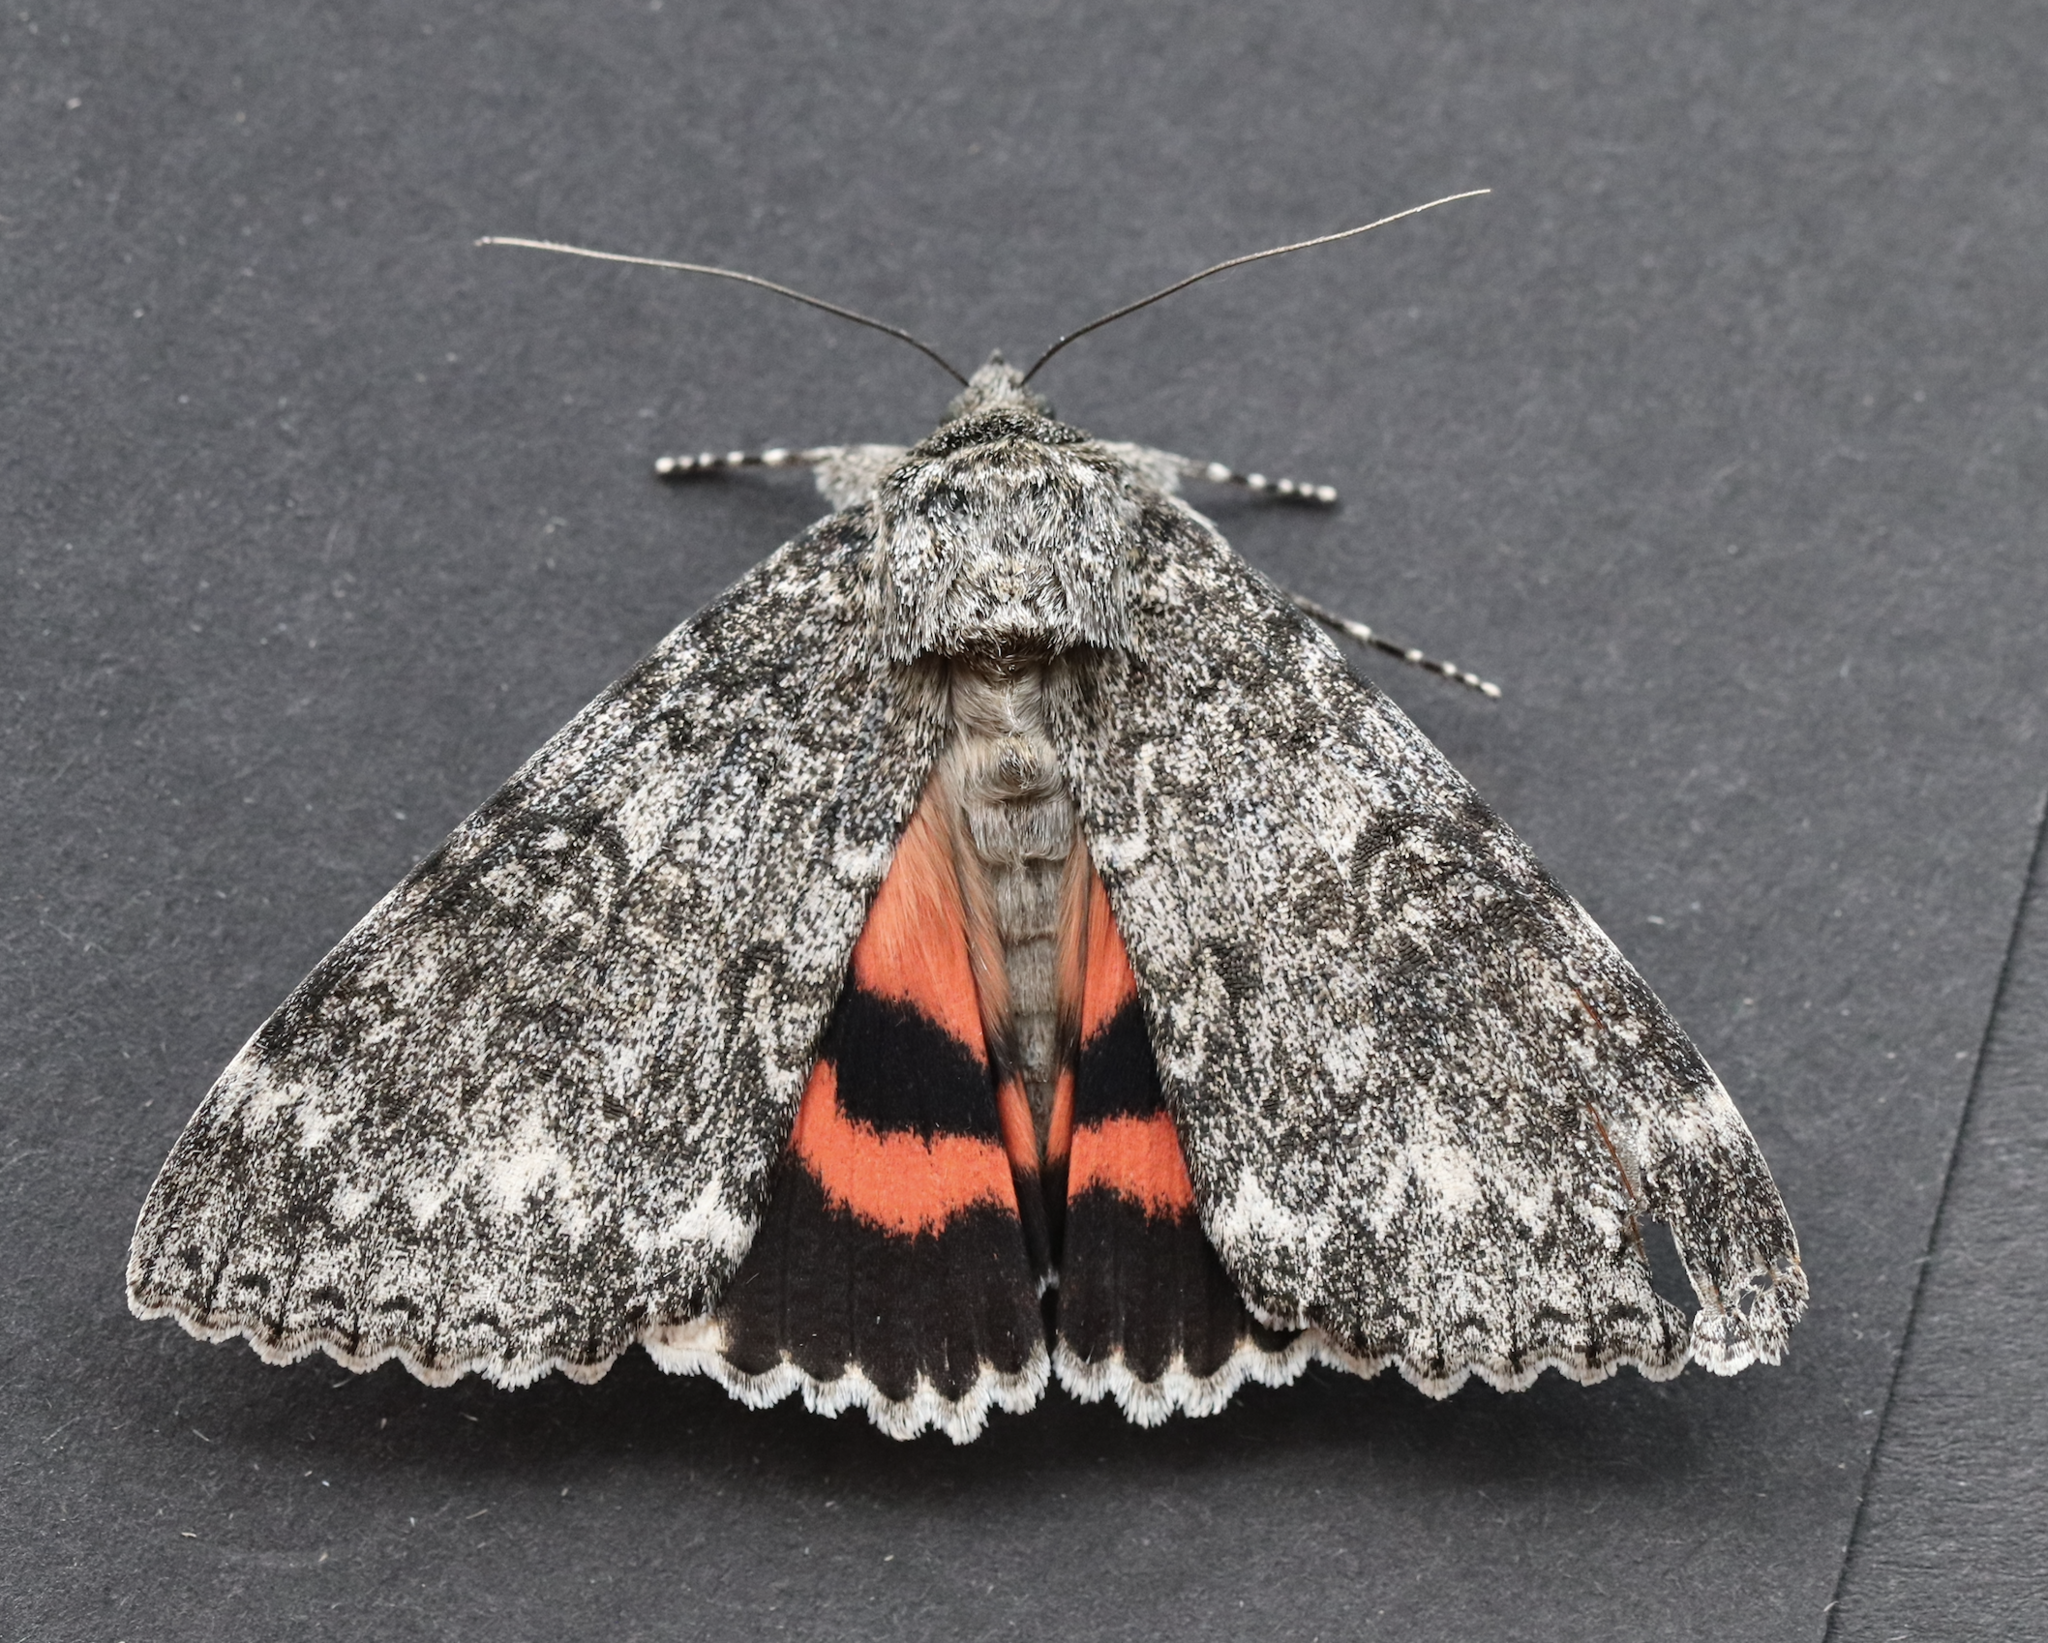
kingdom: Animalia
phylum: Arthropoda
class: Insecta
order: Lepidoptera
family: Erebidae
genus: Catocala
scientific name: Catocala unijuga
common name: Once-married underwing
